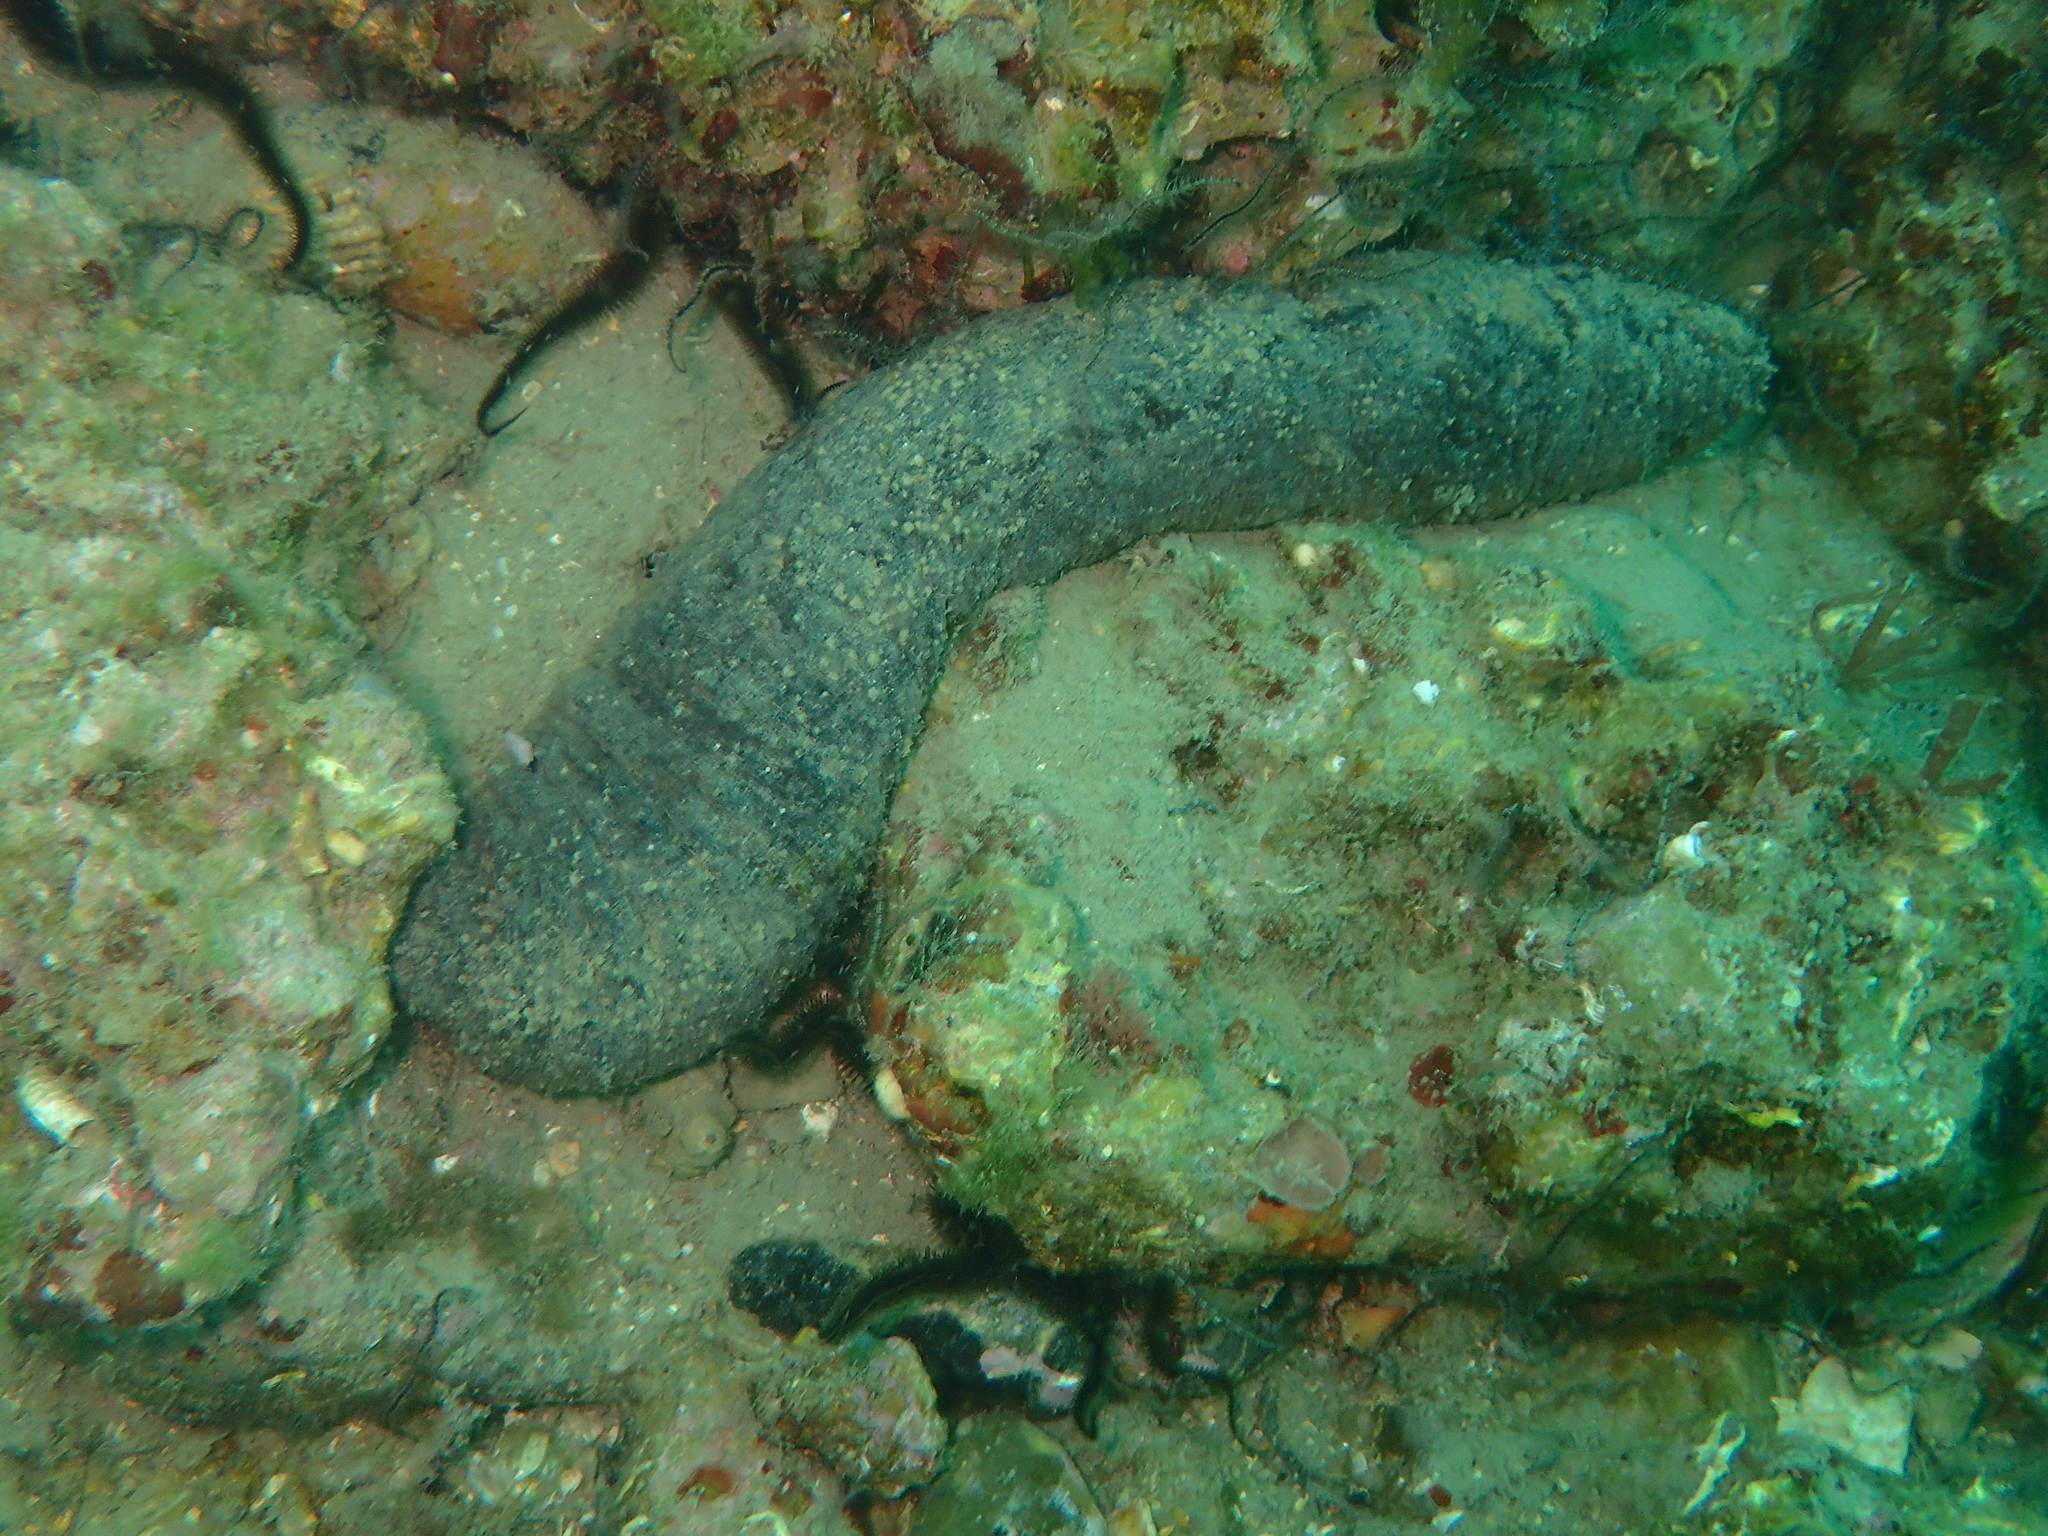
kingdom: Animalia
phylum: Echinodermata
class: Holothuroidea
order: Holothuriida
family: Holothuriidae
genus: Holothuria
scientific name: Holothuria
